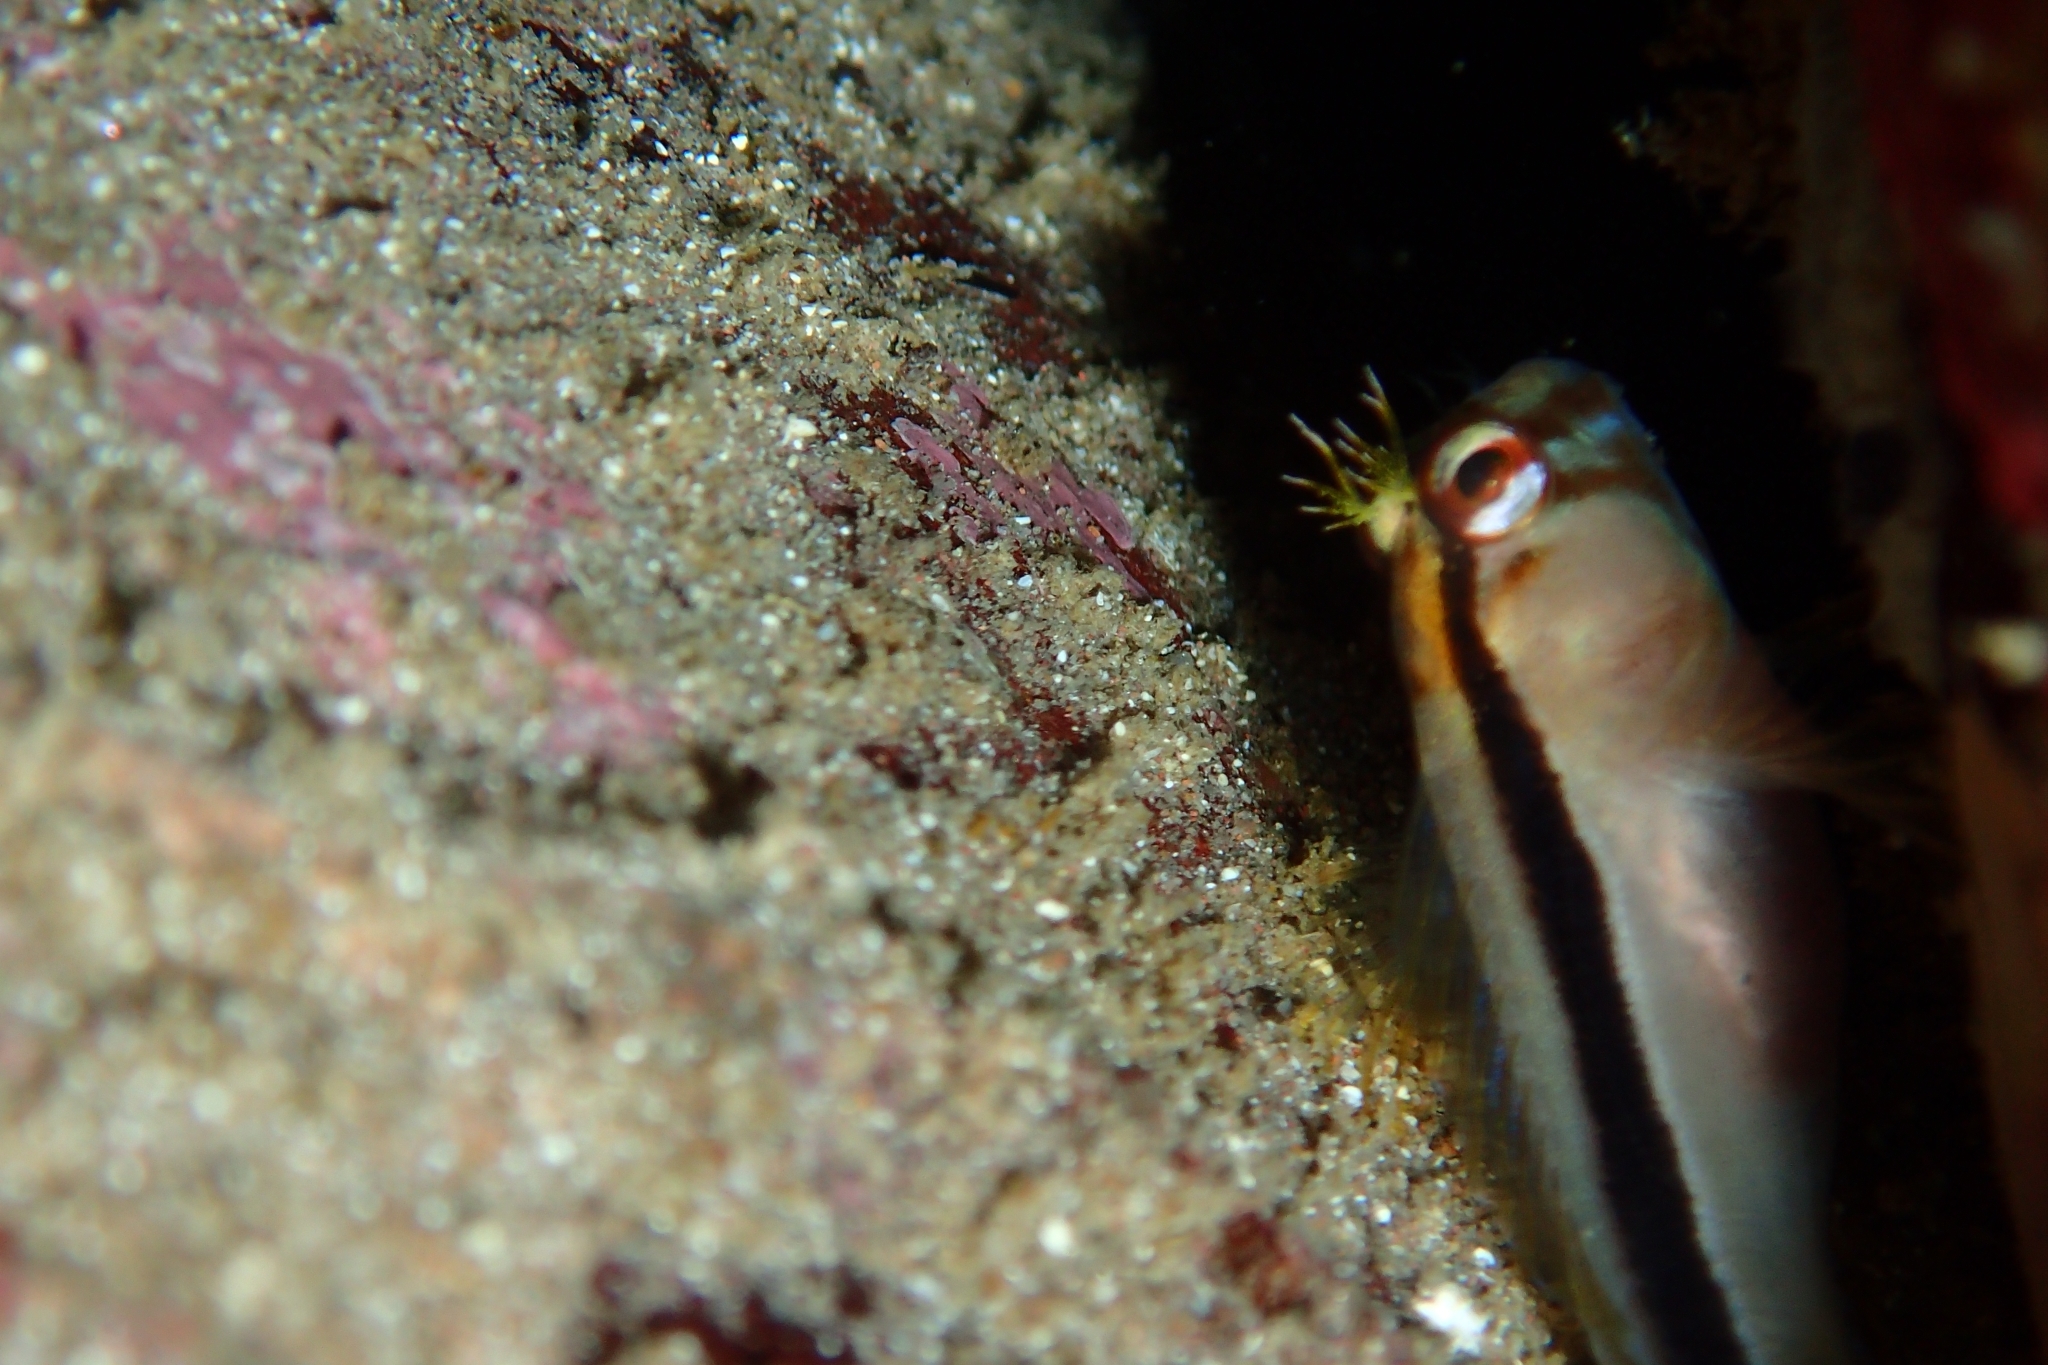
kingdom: Animalia
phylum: Chordata
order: Perciformes
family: Blenniidae
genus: Parablennius
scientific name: Parablennius laticlavius
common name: Crested blenny
